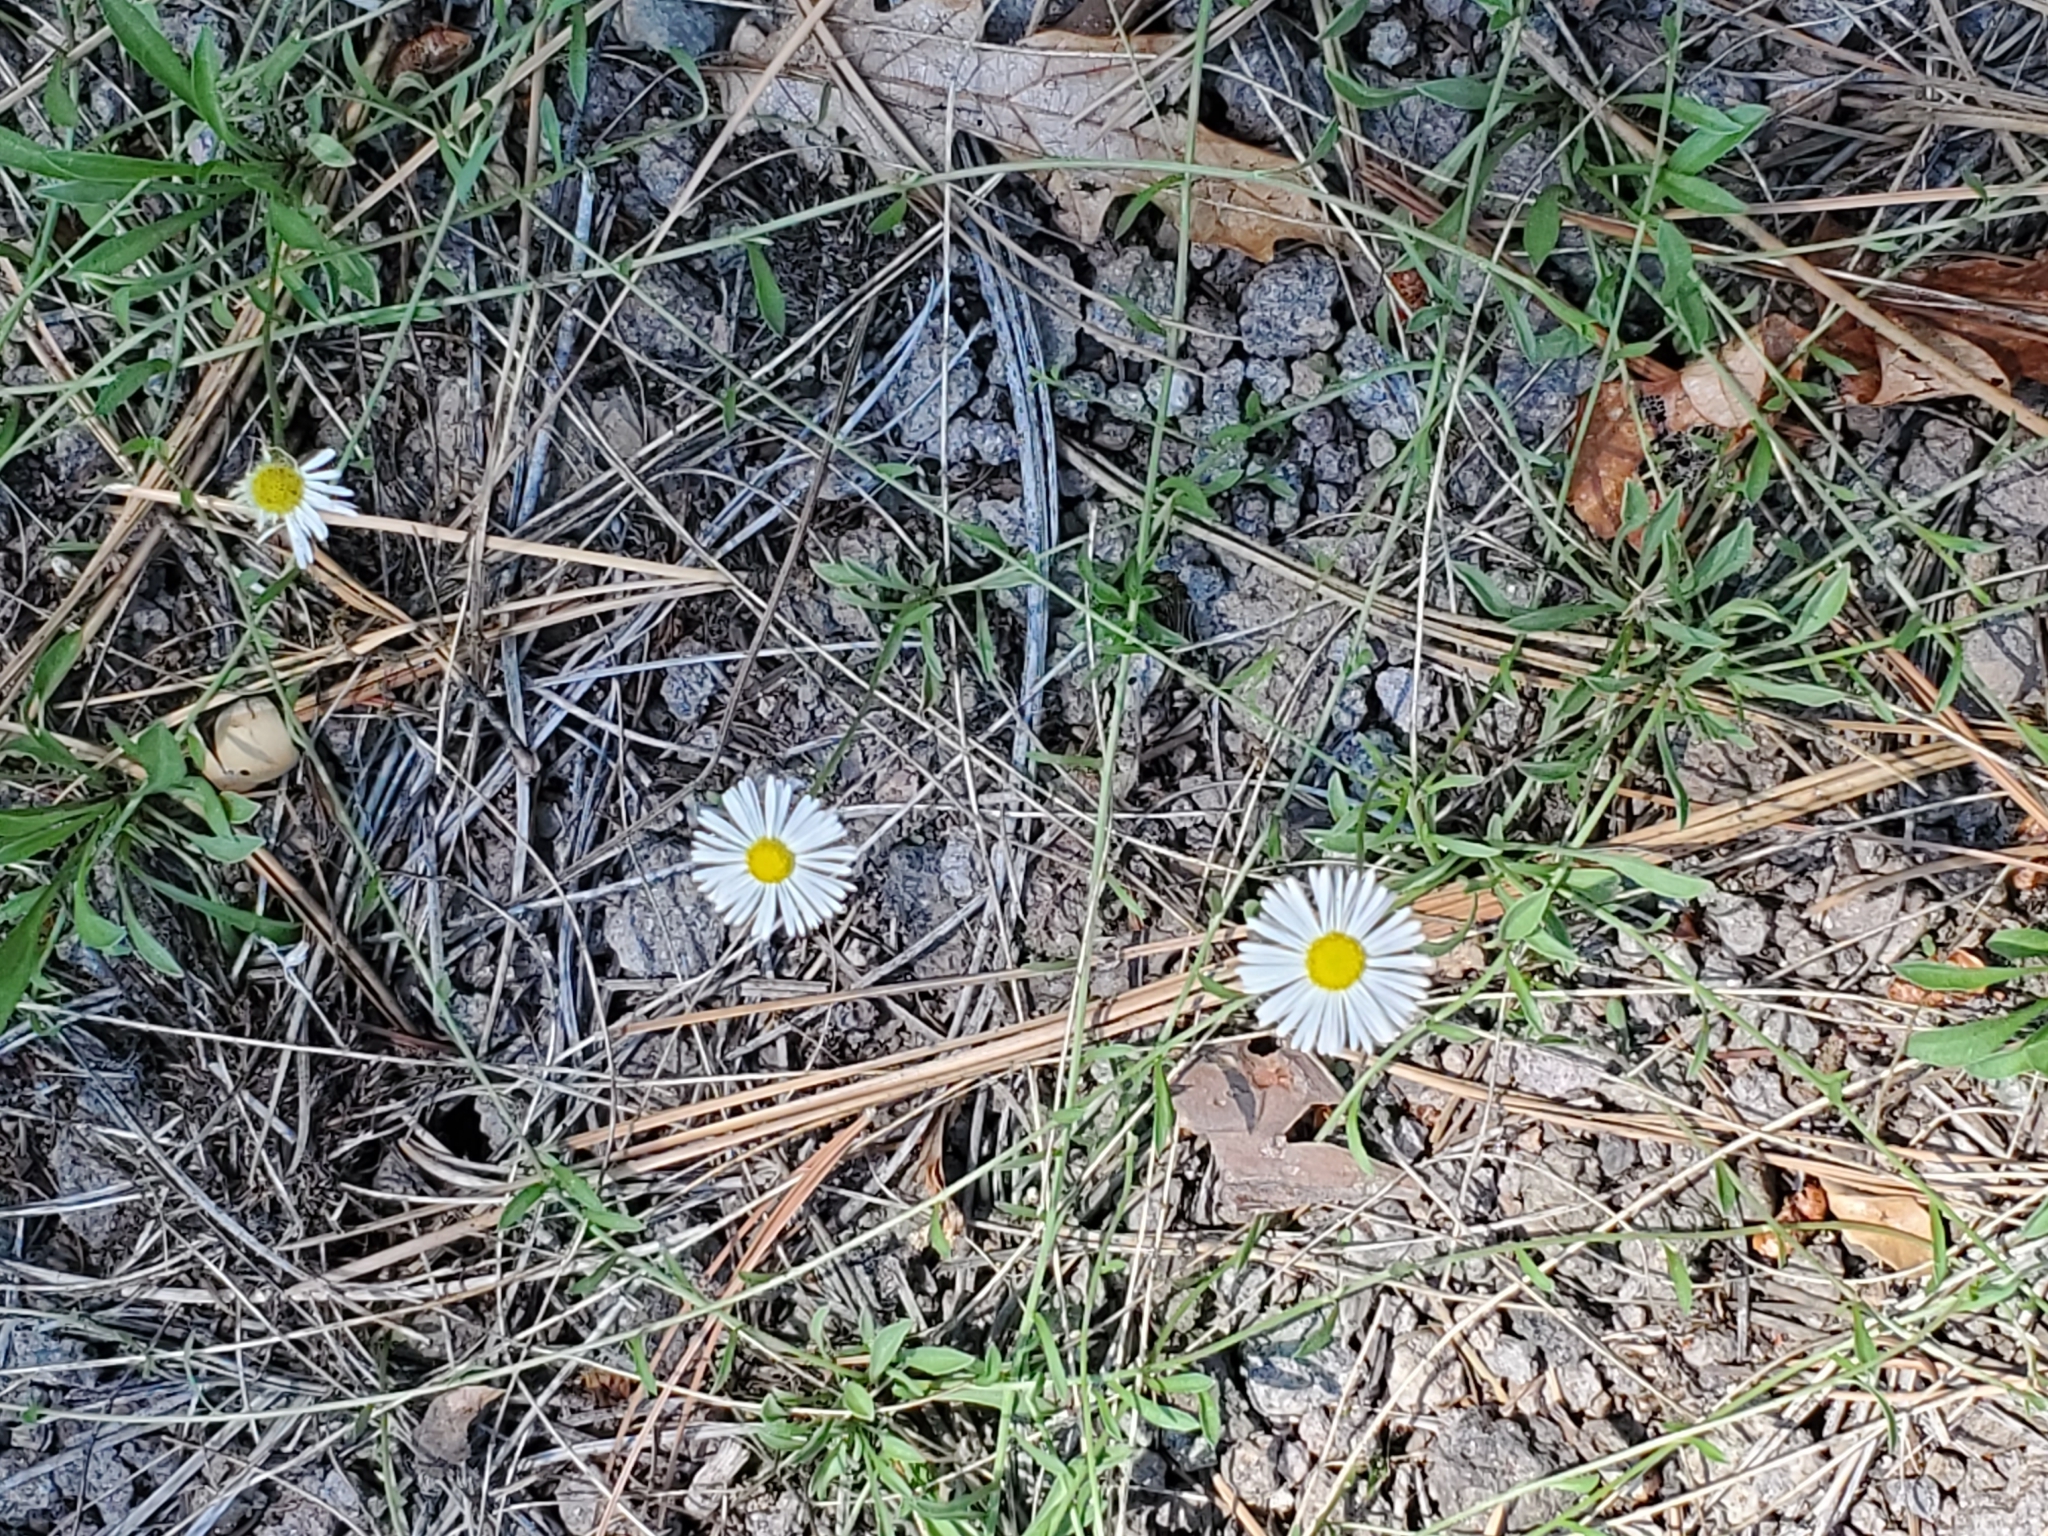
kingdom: Plantae
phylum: Tracheophyta
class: Magnoliopsida
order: Asterales
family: Asteraceae
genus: Erigeron
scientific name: Erigeron flagellaris
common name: Running fleabane
